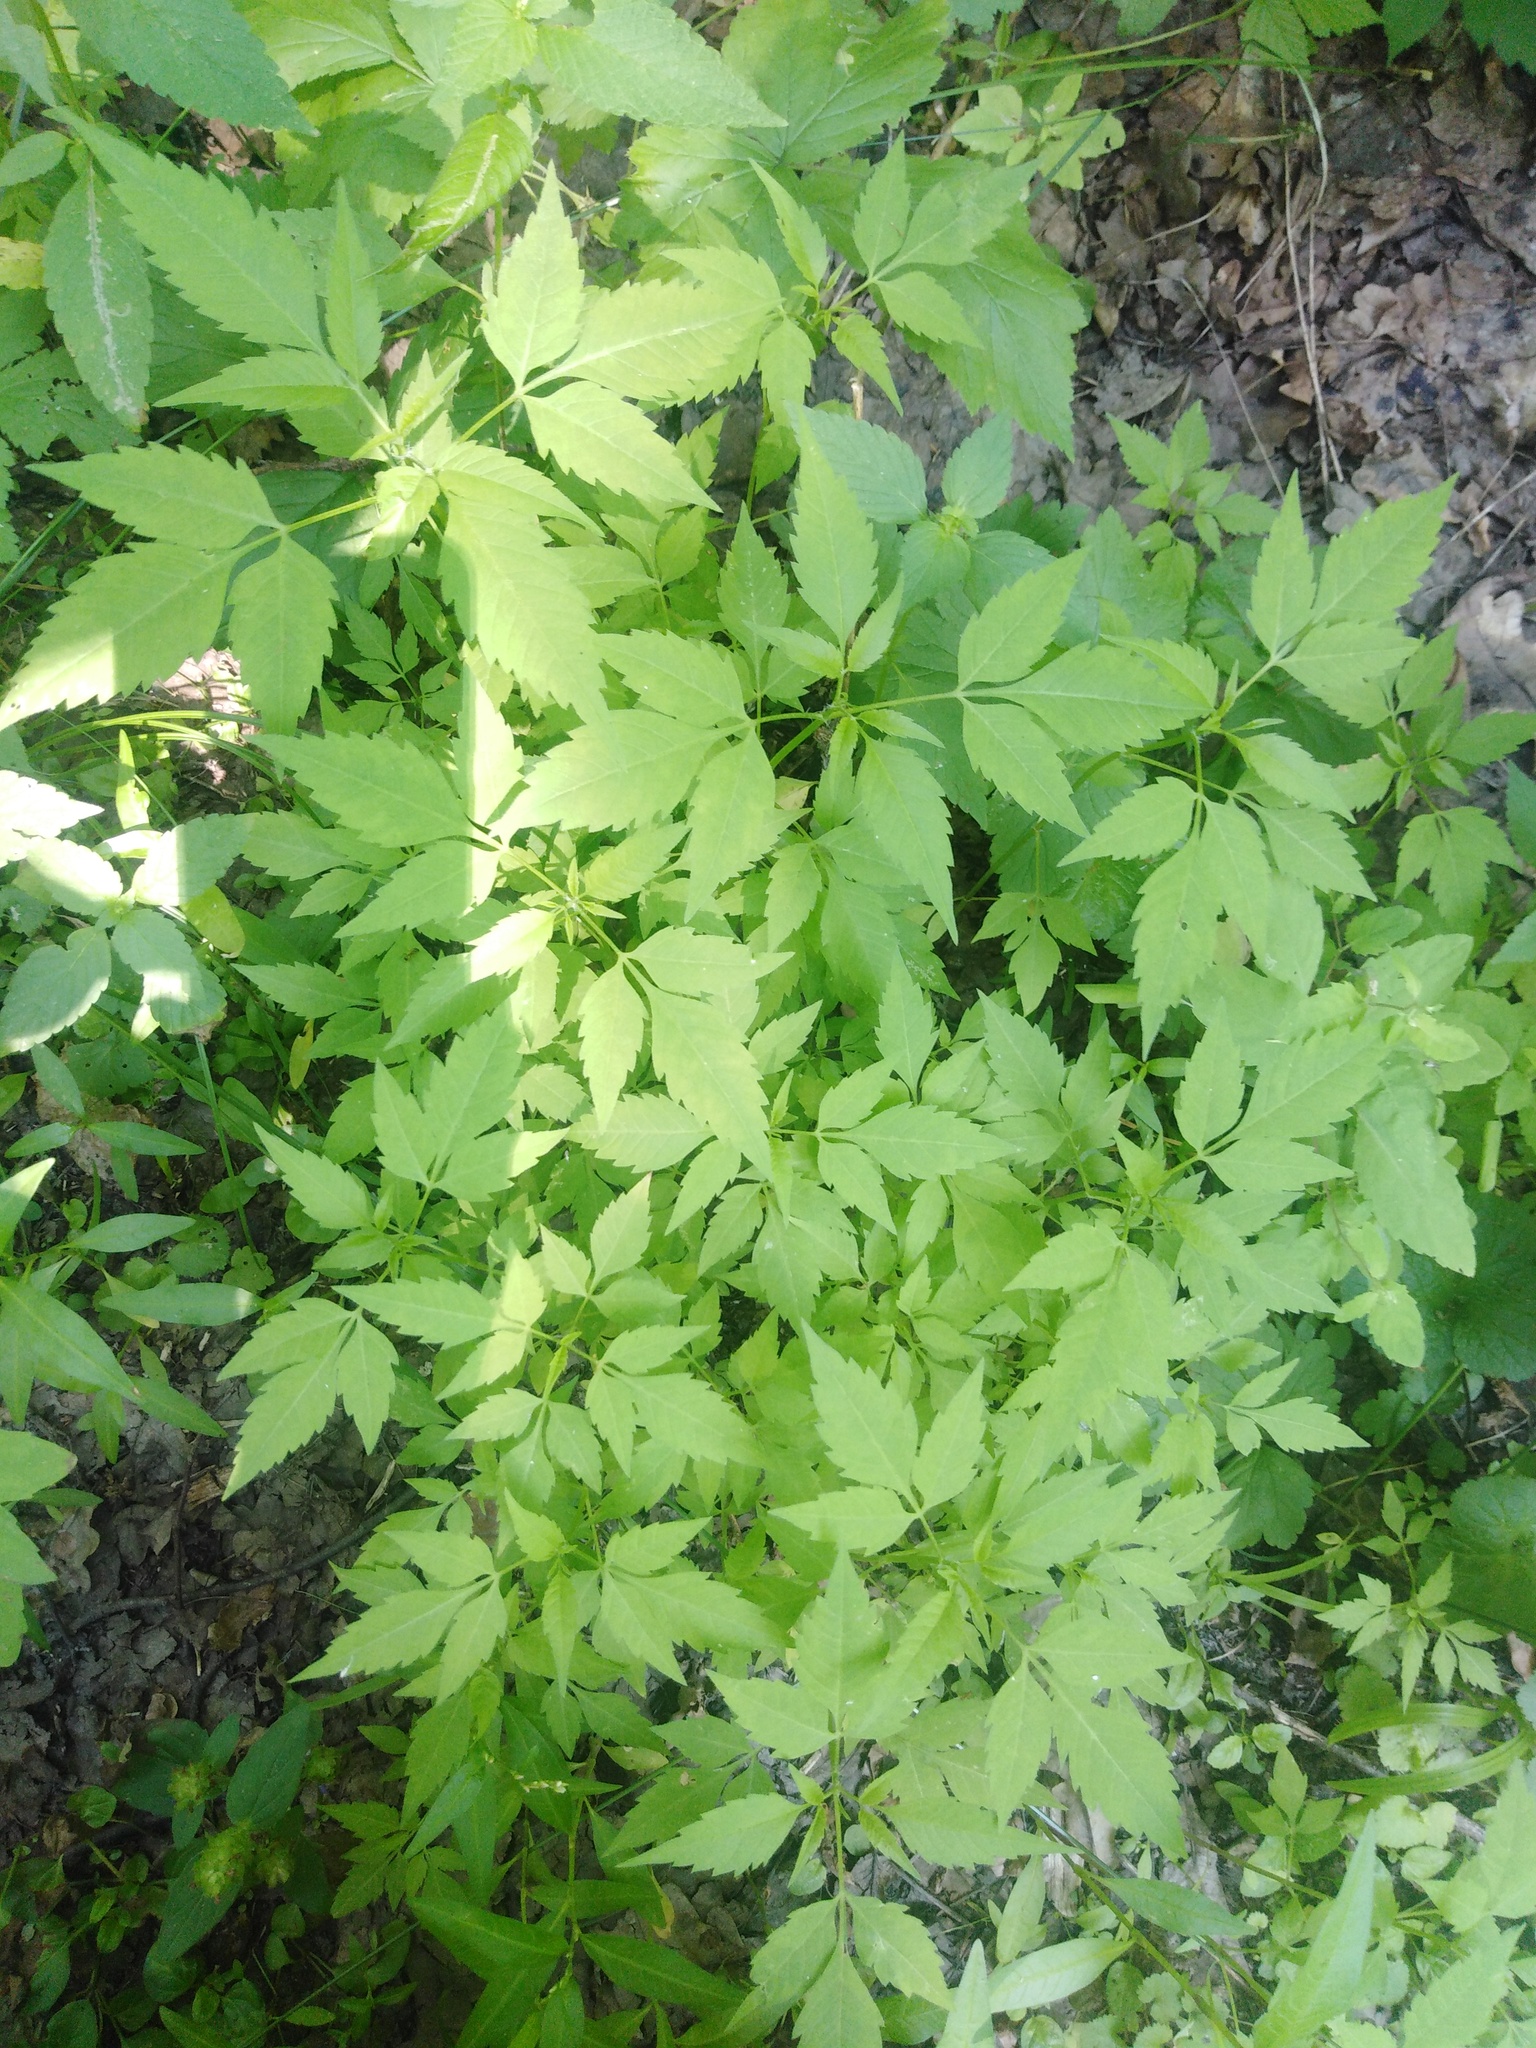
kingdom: Plantae
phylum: Tracheophyta
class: Magnoliopsida
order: Asterales
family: Asteraceae
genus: Bidens
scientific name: Bidens frondosa
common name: Beggarticks
